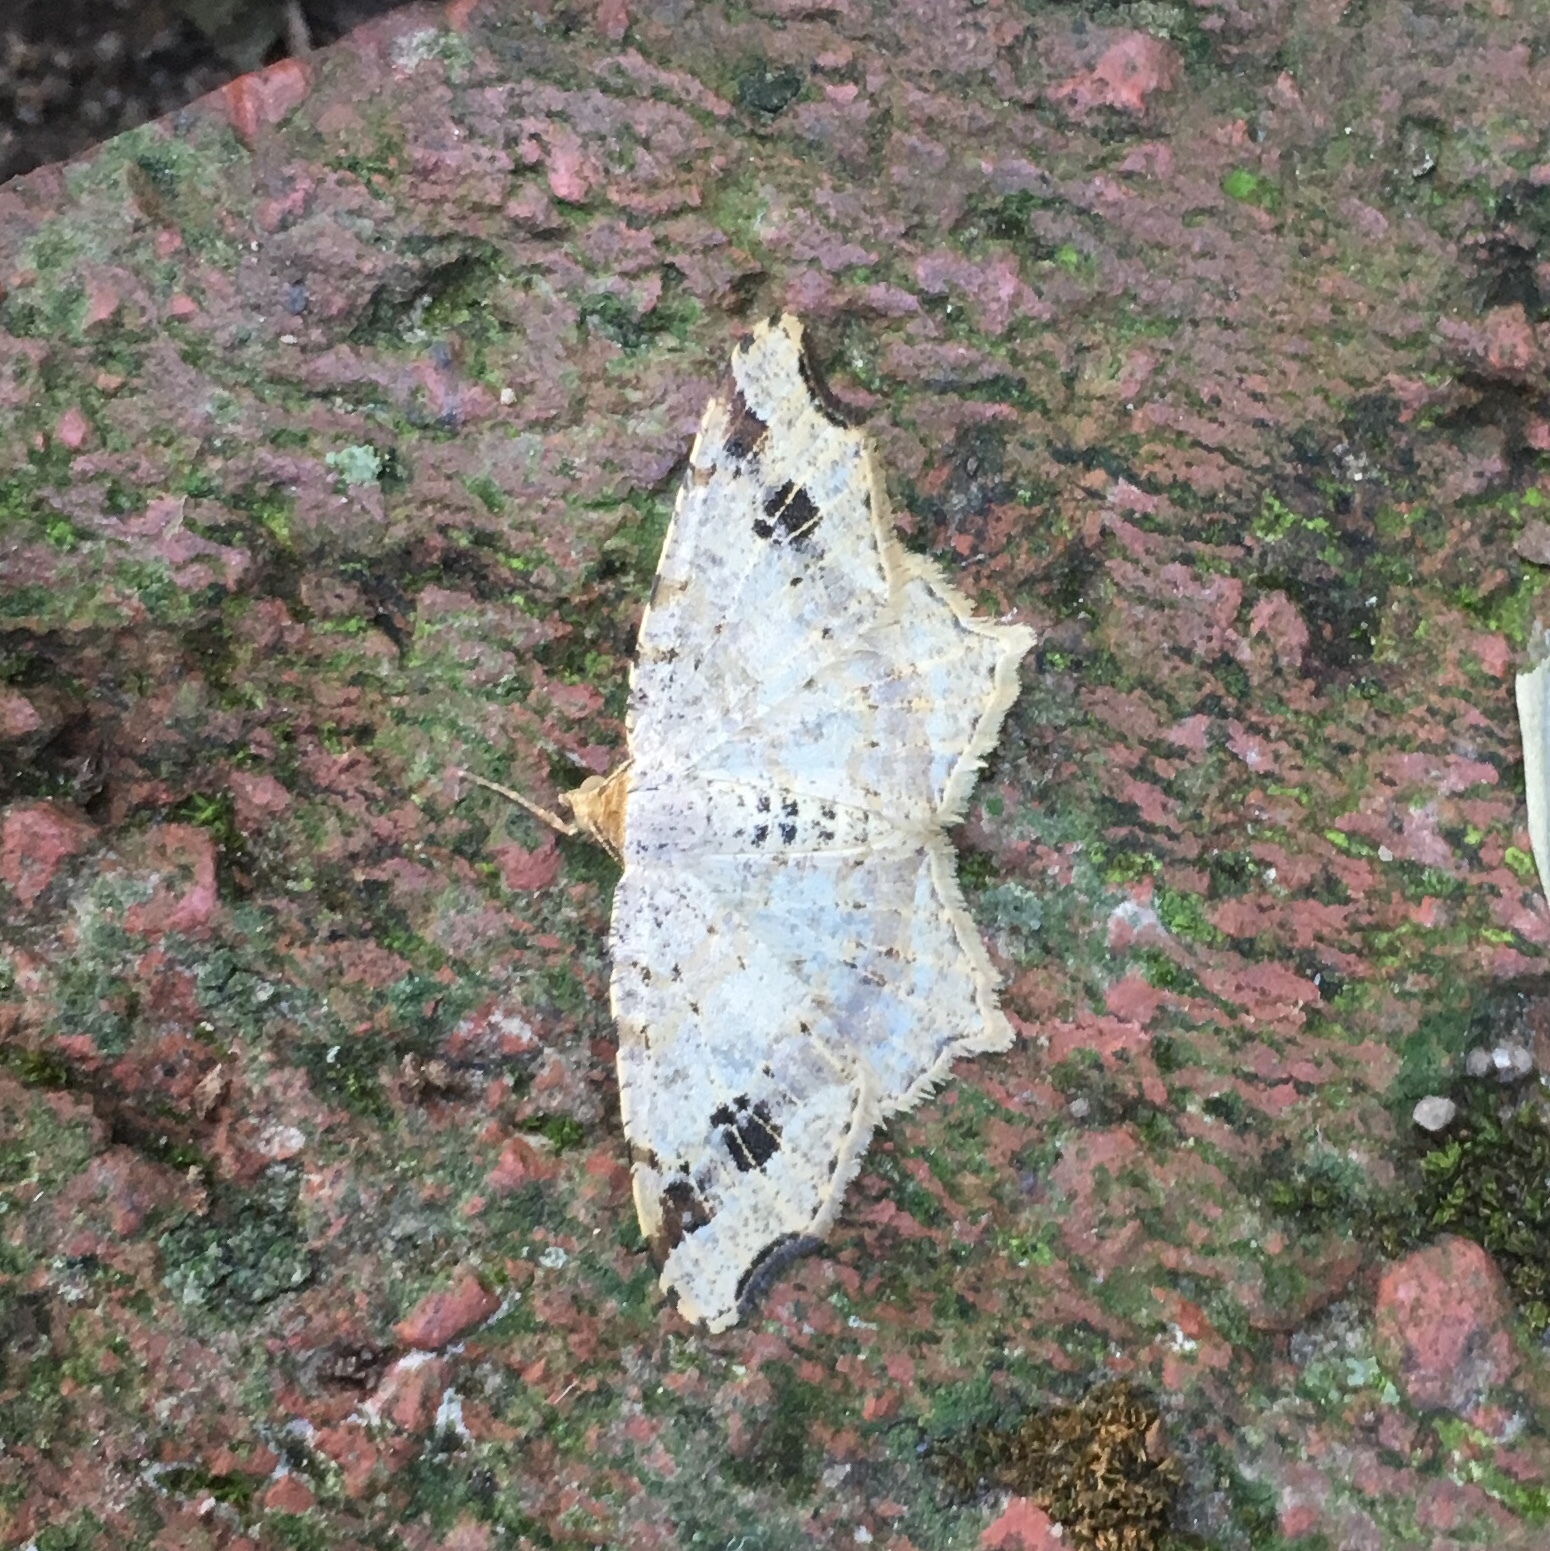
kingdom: Animalia
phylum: Arthropoda
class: Insecta
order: Lepidoptera
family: Geometridae
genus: Macaria
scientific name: Macaria aemulataria
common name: Common angle
